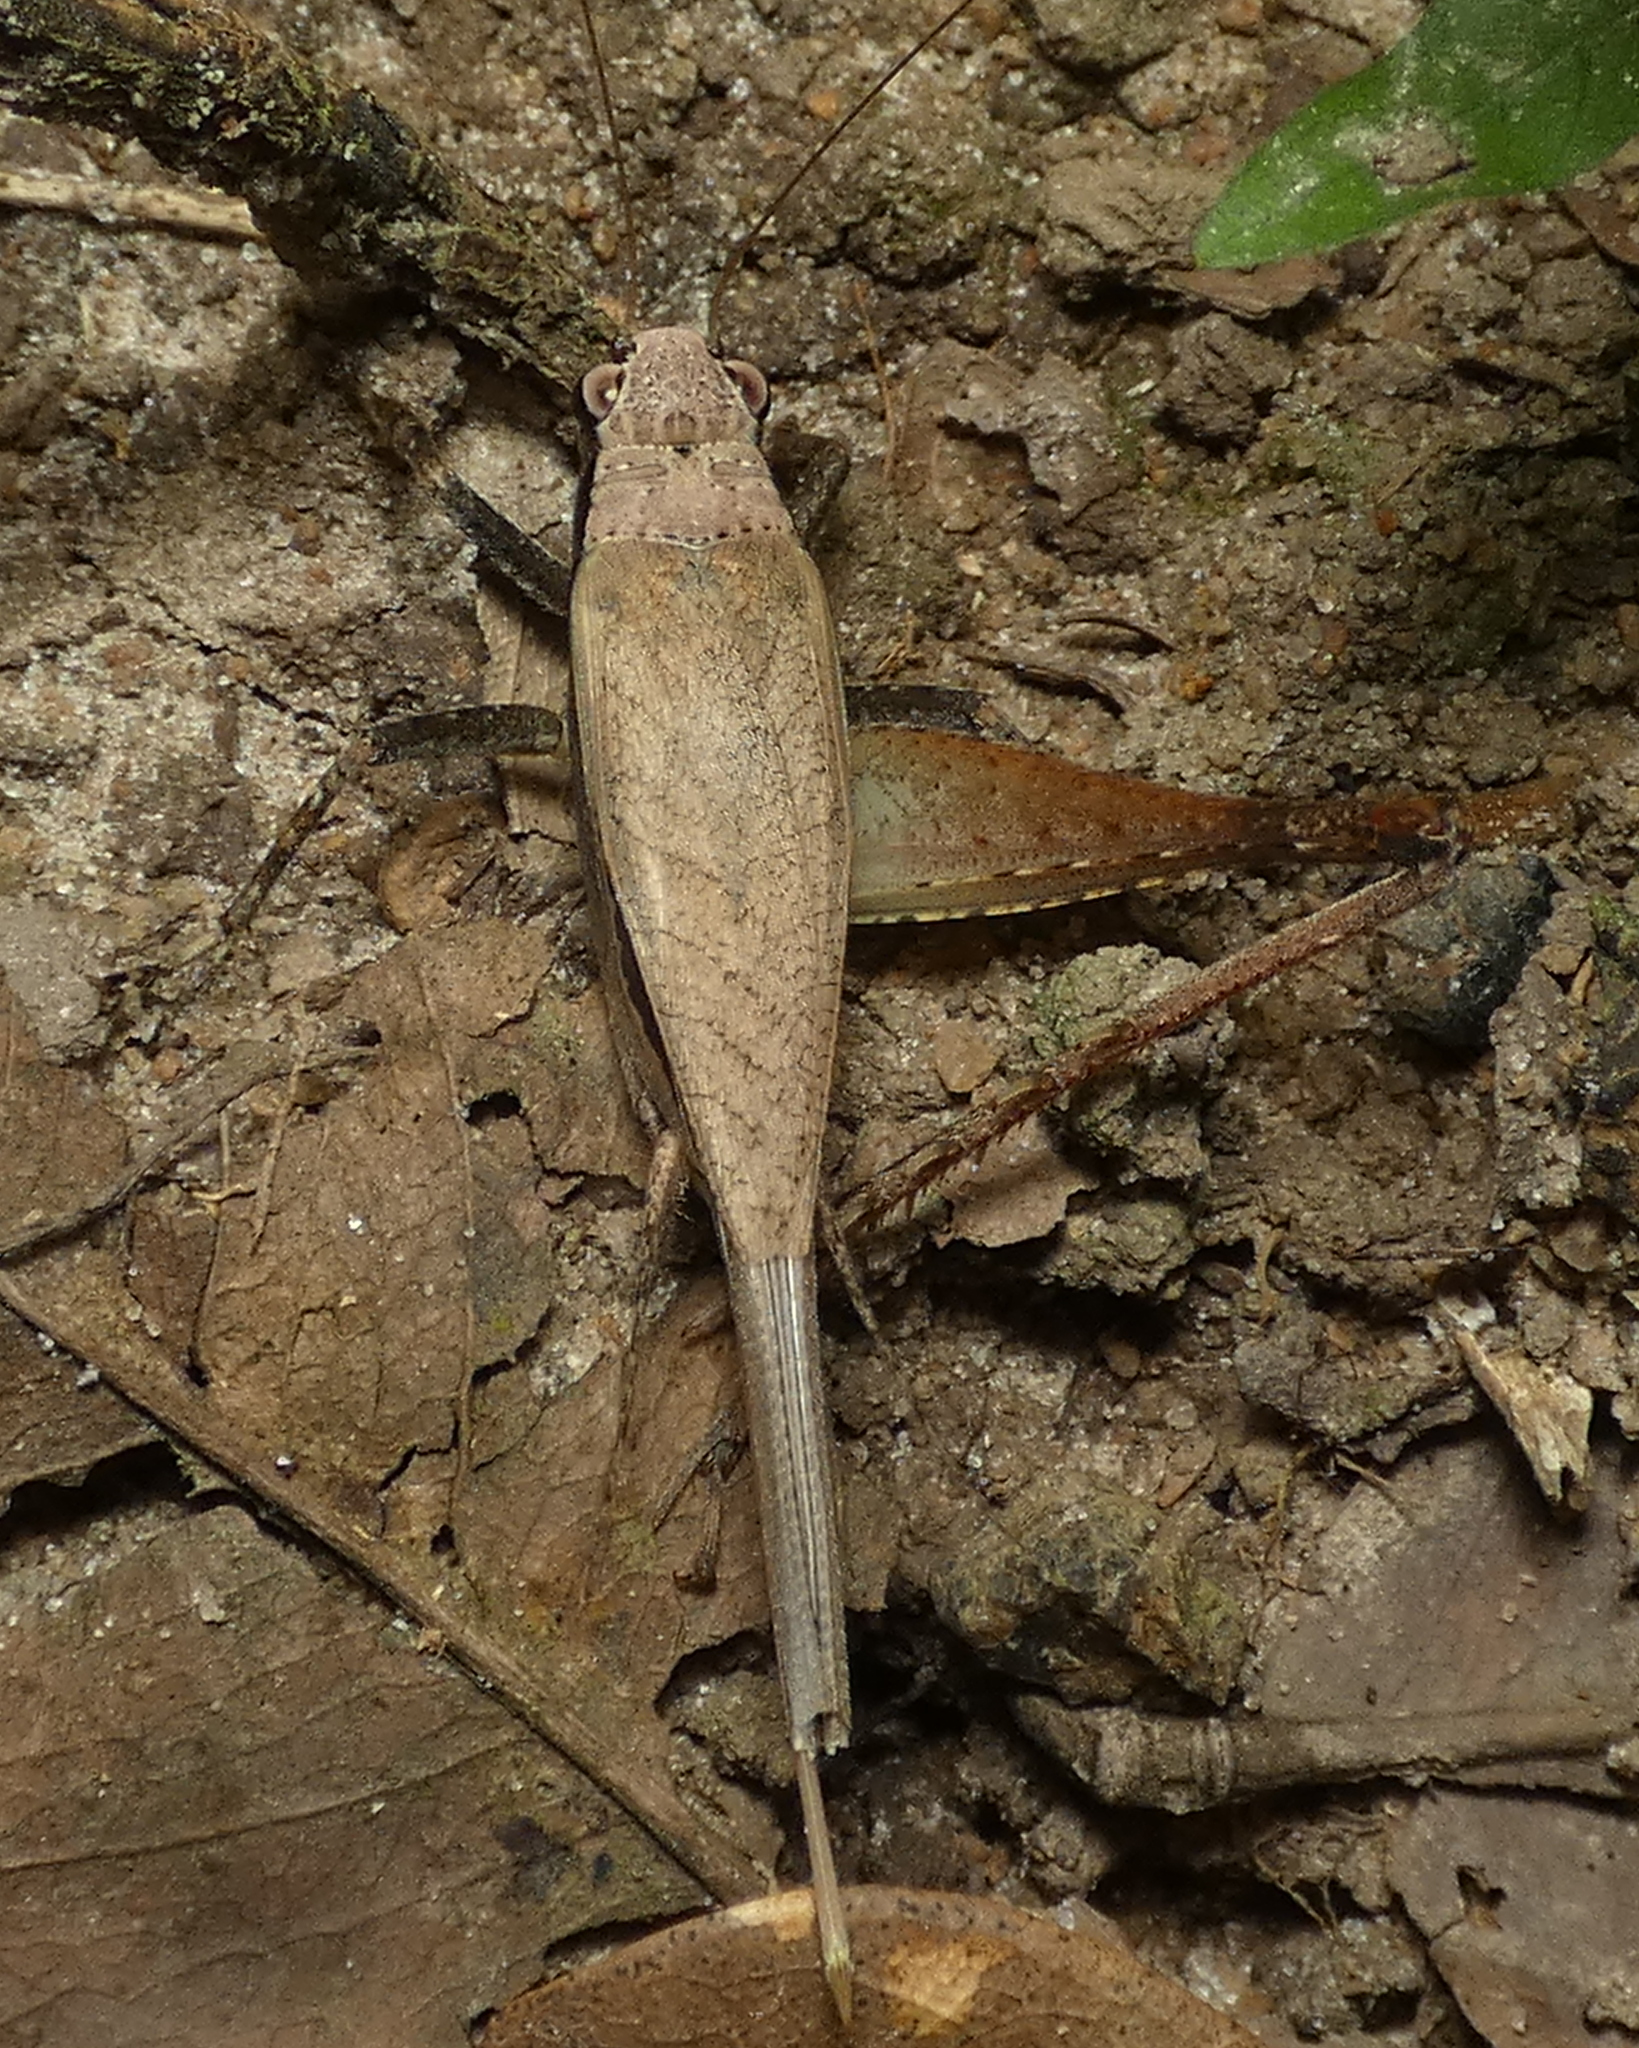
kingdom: Animalia
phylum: Arthropoda
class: Insecta
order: Orthoptera
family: Gryllidae
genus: Eneoptera
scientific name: Eneoptera surinamensis
